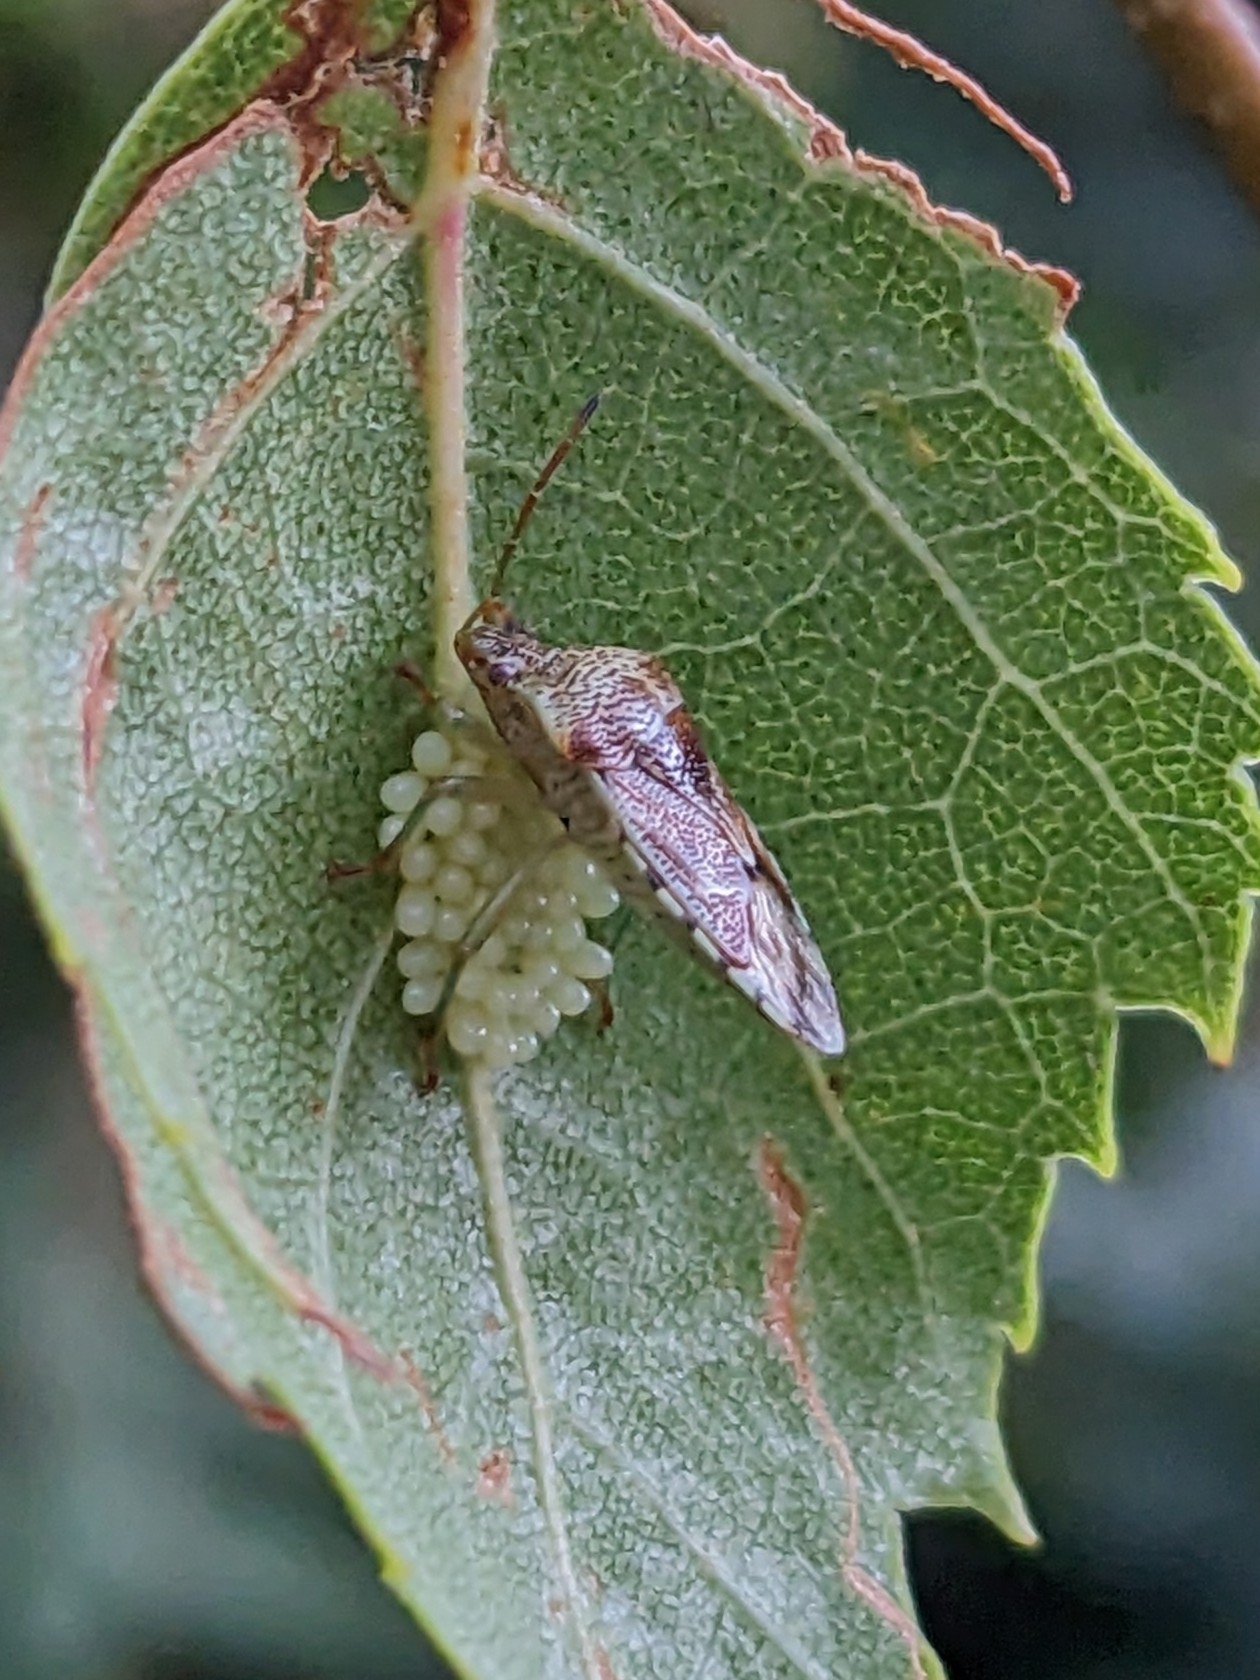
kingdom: Animalia
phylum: Arthropoda
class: Insecta
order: Hemiptera
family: Acanthosomatidae
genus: Elasmucha
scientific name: Elasmucha grisea
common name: Parent bug
